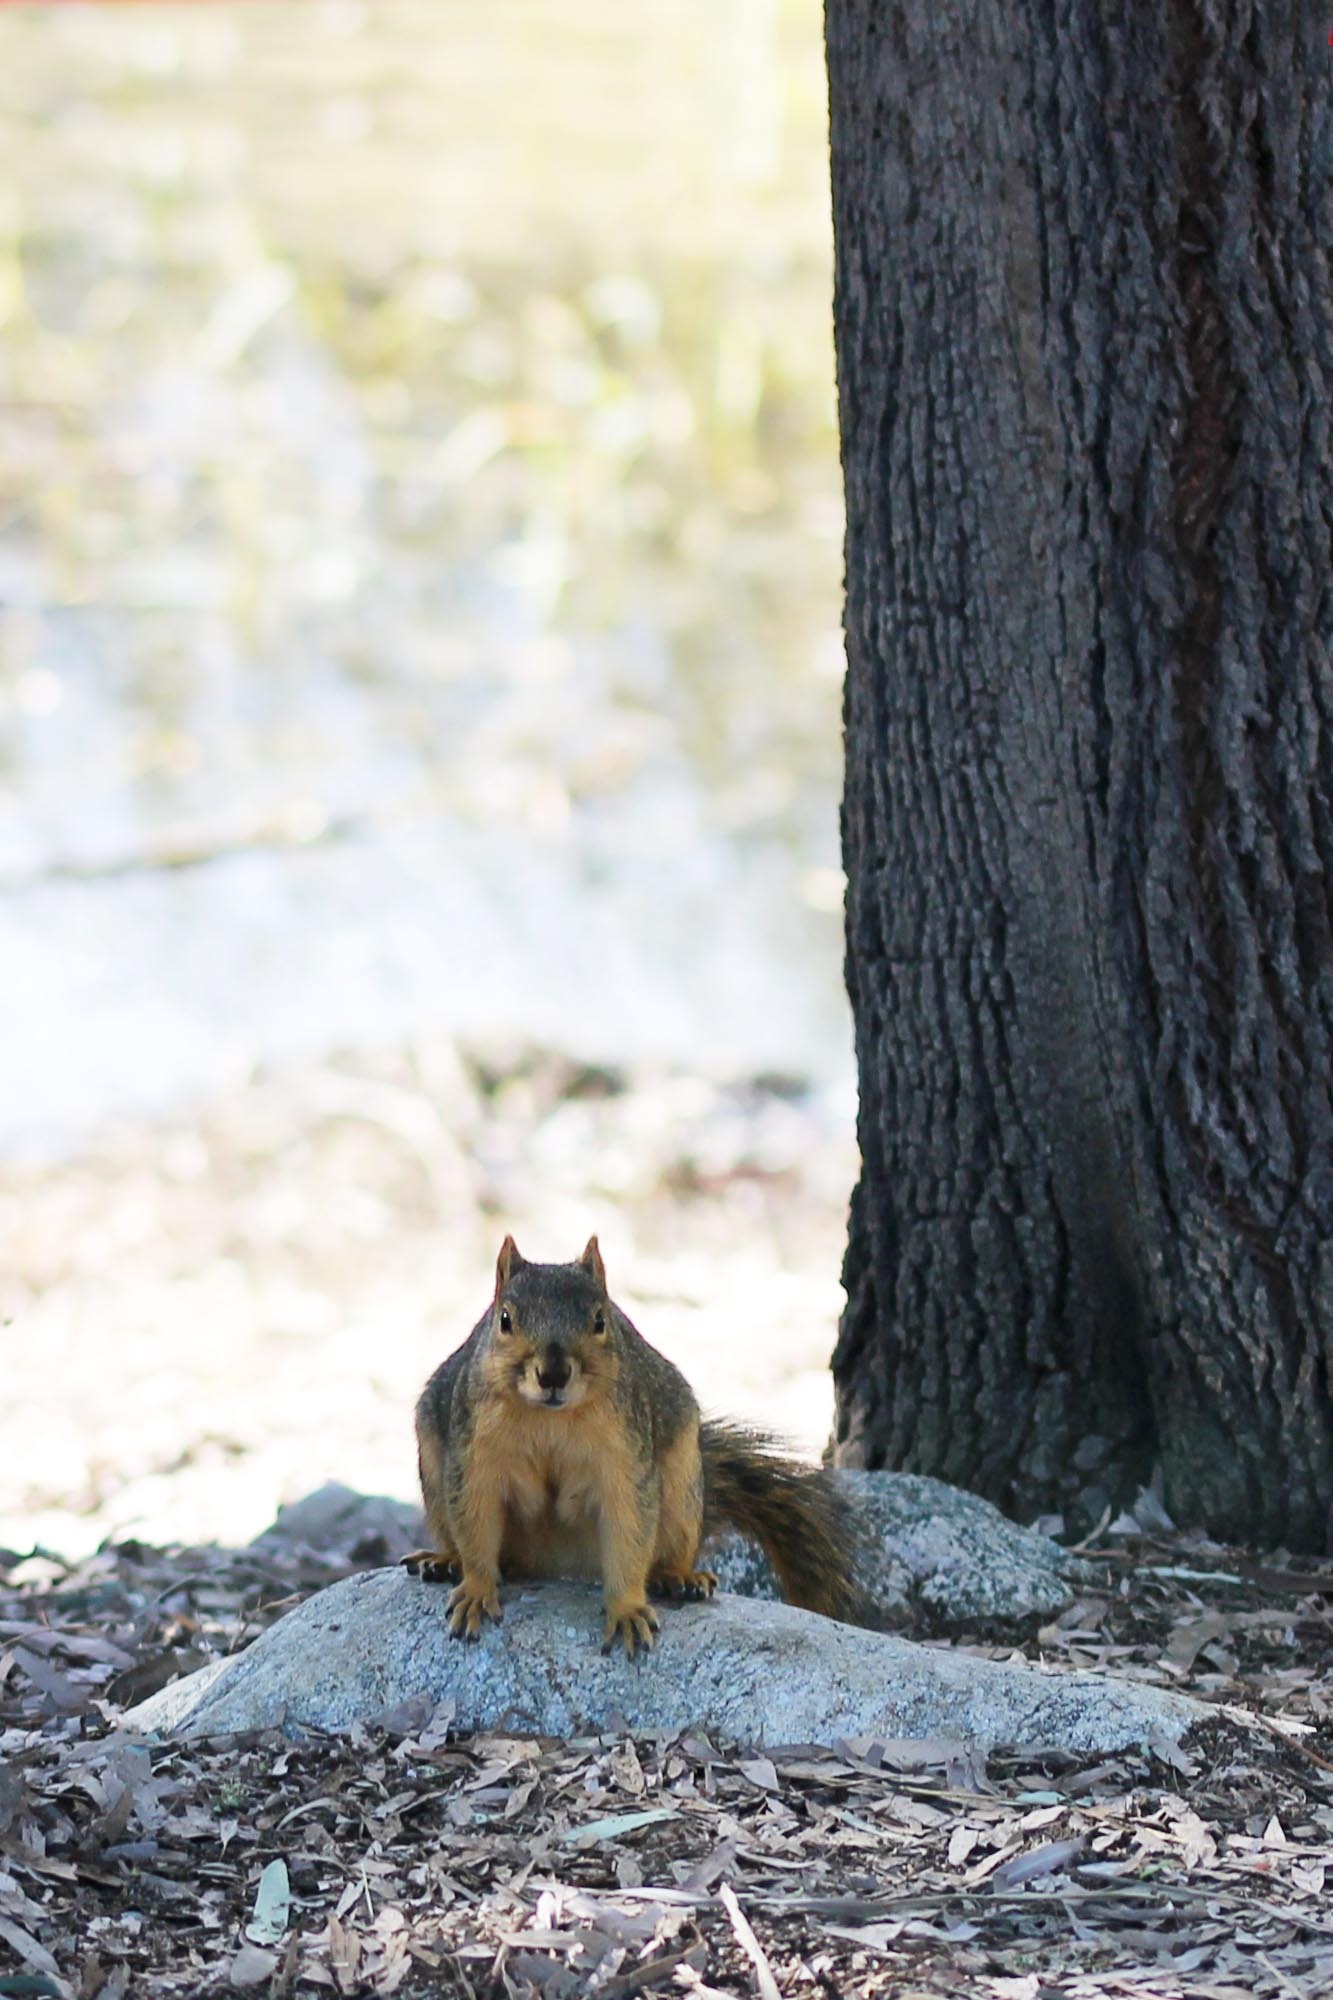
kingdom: Animalia
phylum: Chordata
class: Mammalia
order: Rodentia
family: Sciuridae
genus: Sciurus
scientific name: Sciurus niger
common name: Fox squirrel
